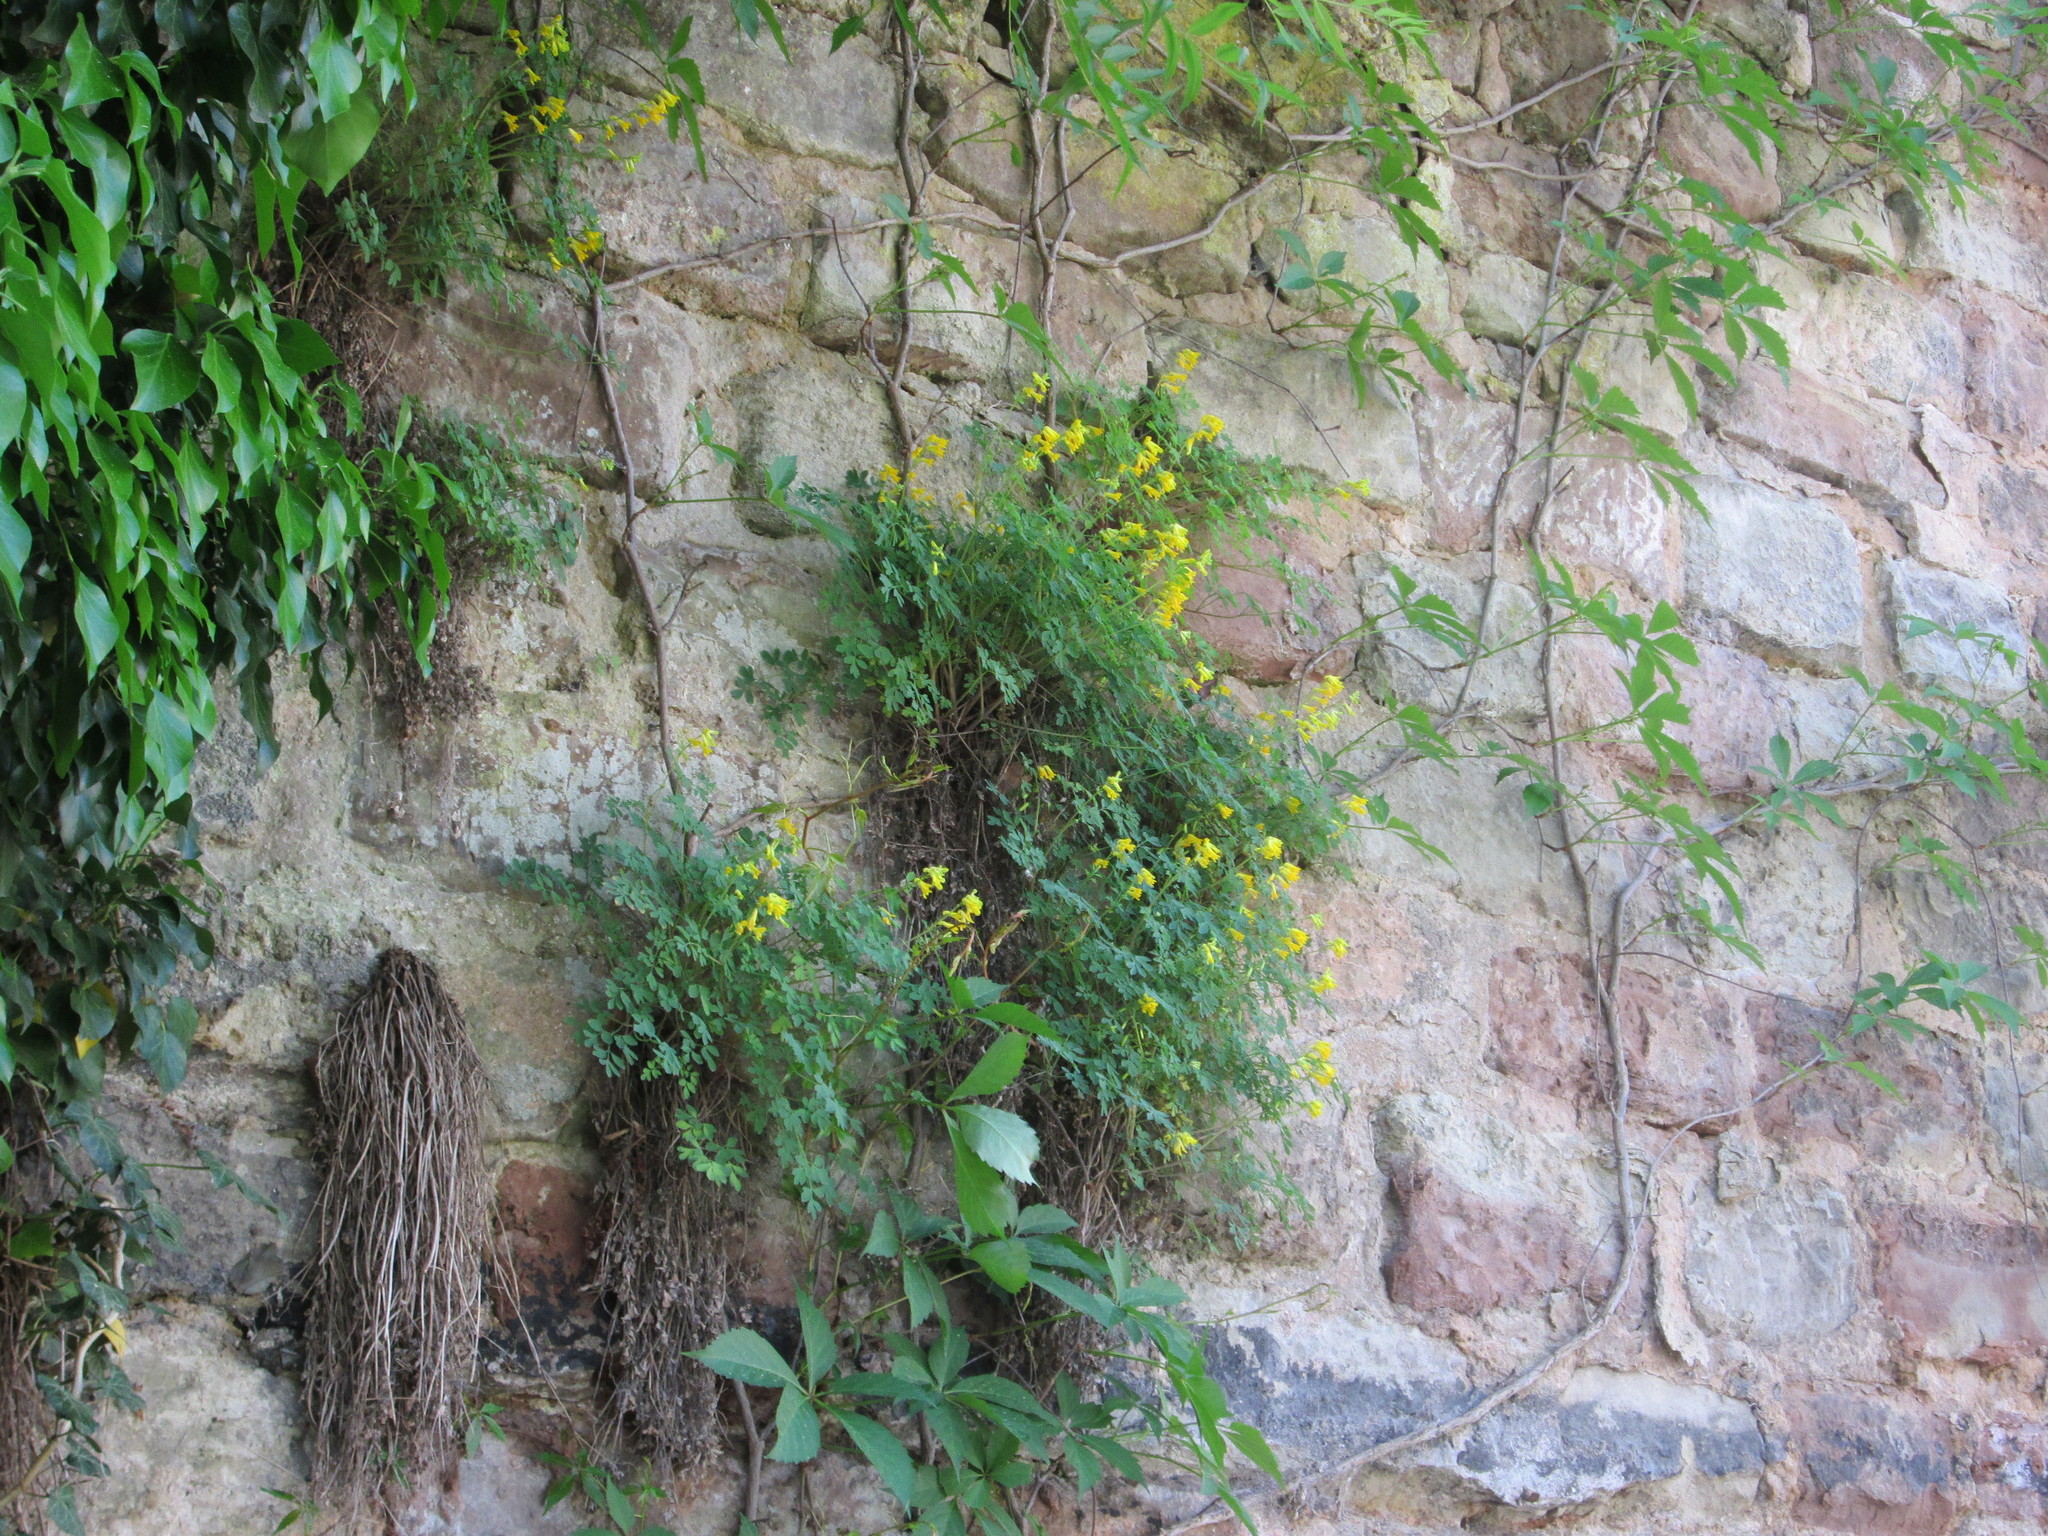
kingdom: Plantae
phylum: Tracheophyta
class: Magnoliopsida
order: Ranunculales
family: Papaveraceae
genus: Pseudofumaria
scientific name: Pseudofumaria lutea
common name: Yellow corydalis
